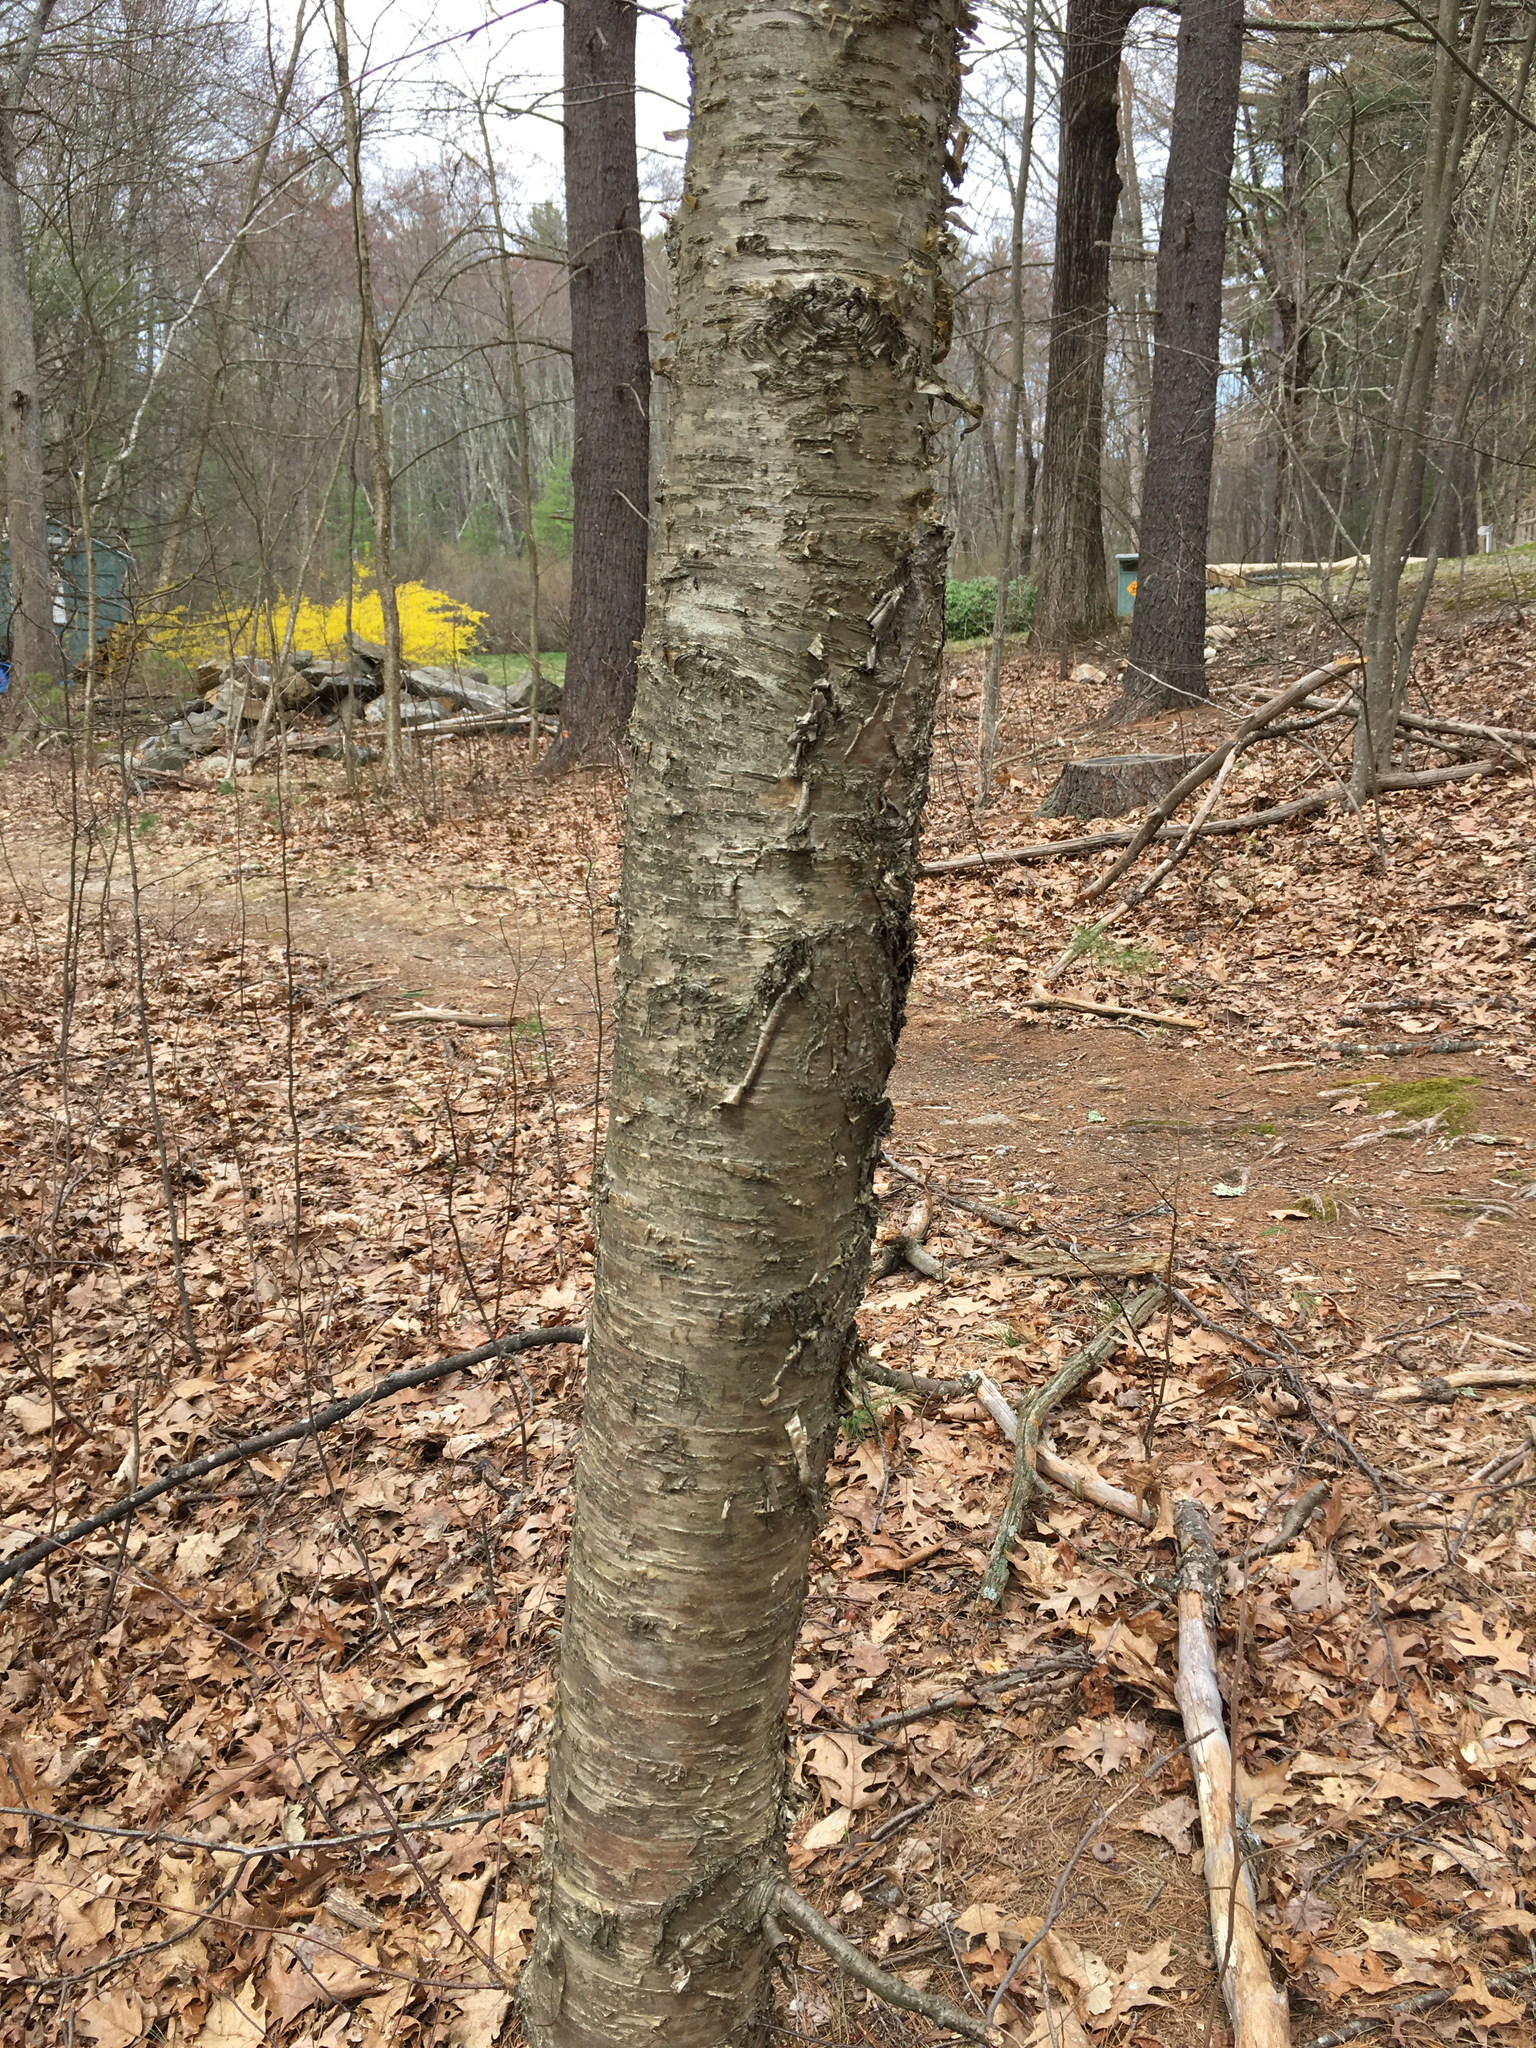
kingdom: Plantae
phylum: Tracheophyta
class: Magnoliopsida
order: Fagales
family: Betulaceae
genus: Betula
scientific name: Betula alleghaniensis
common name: Yellow birch
